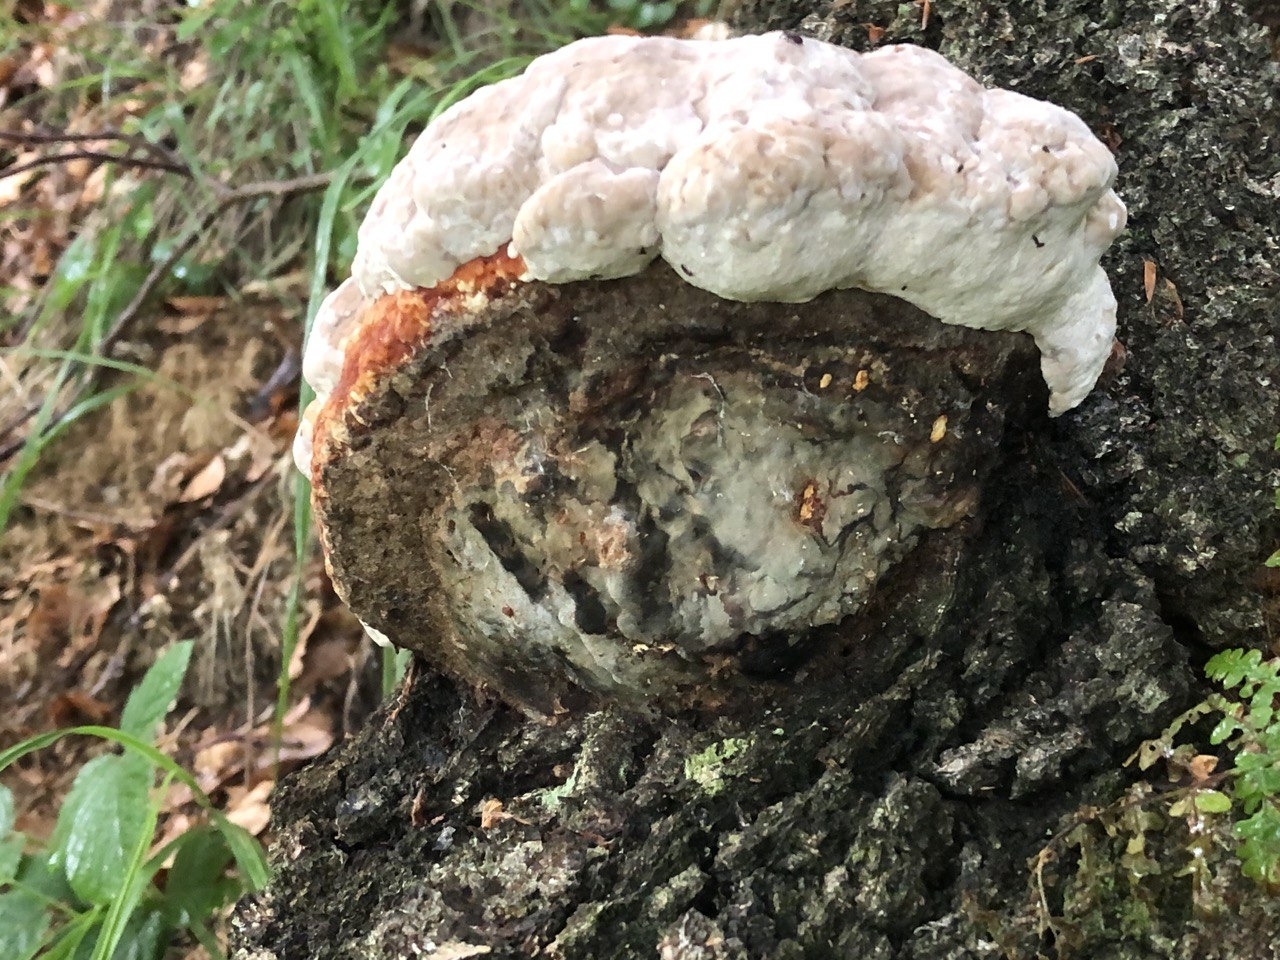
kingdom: Fungi
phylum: Basidiomycota
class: Agaricomycetes
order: Polyporales
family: Fomitopsidaceae
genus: Fomitopsis
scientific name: Fomitopsis pinicola
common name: Red-belted bracket
